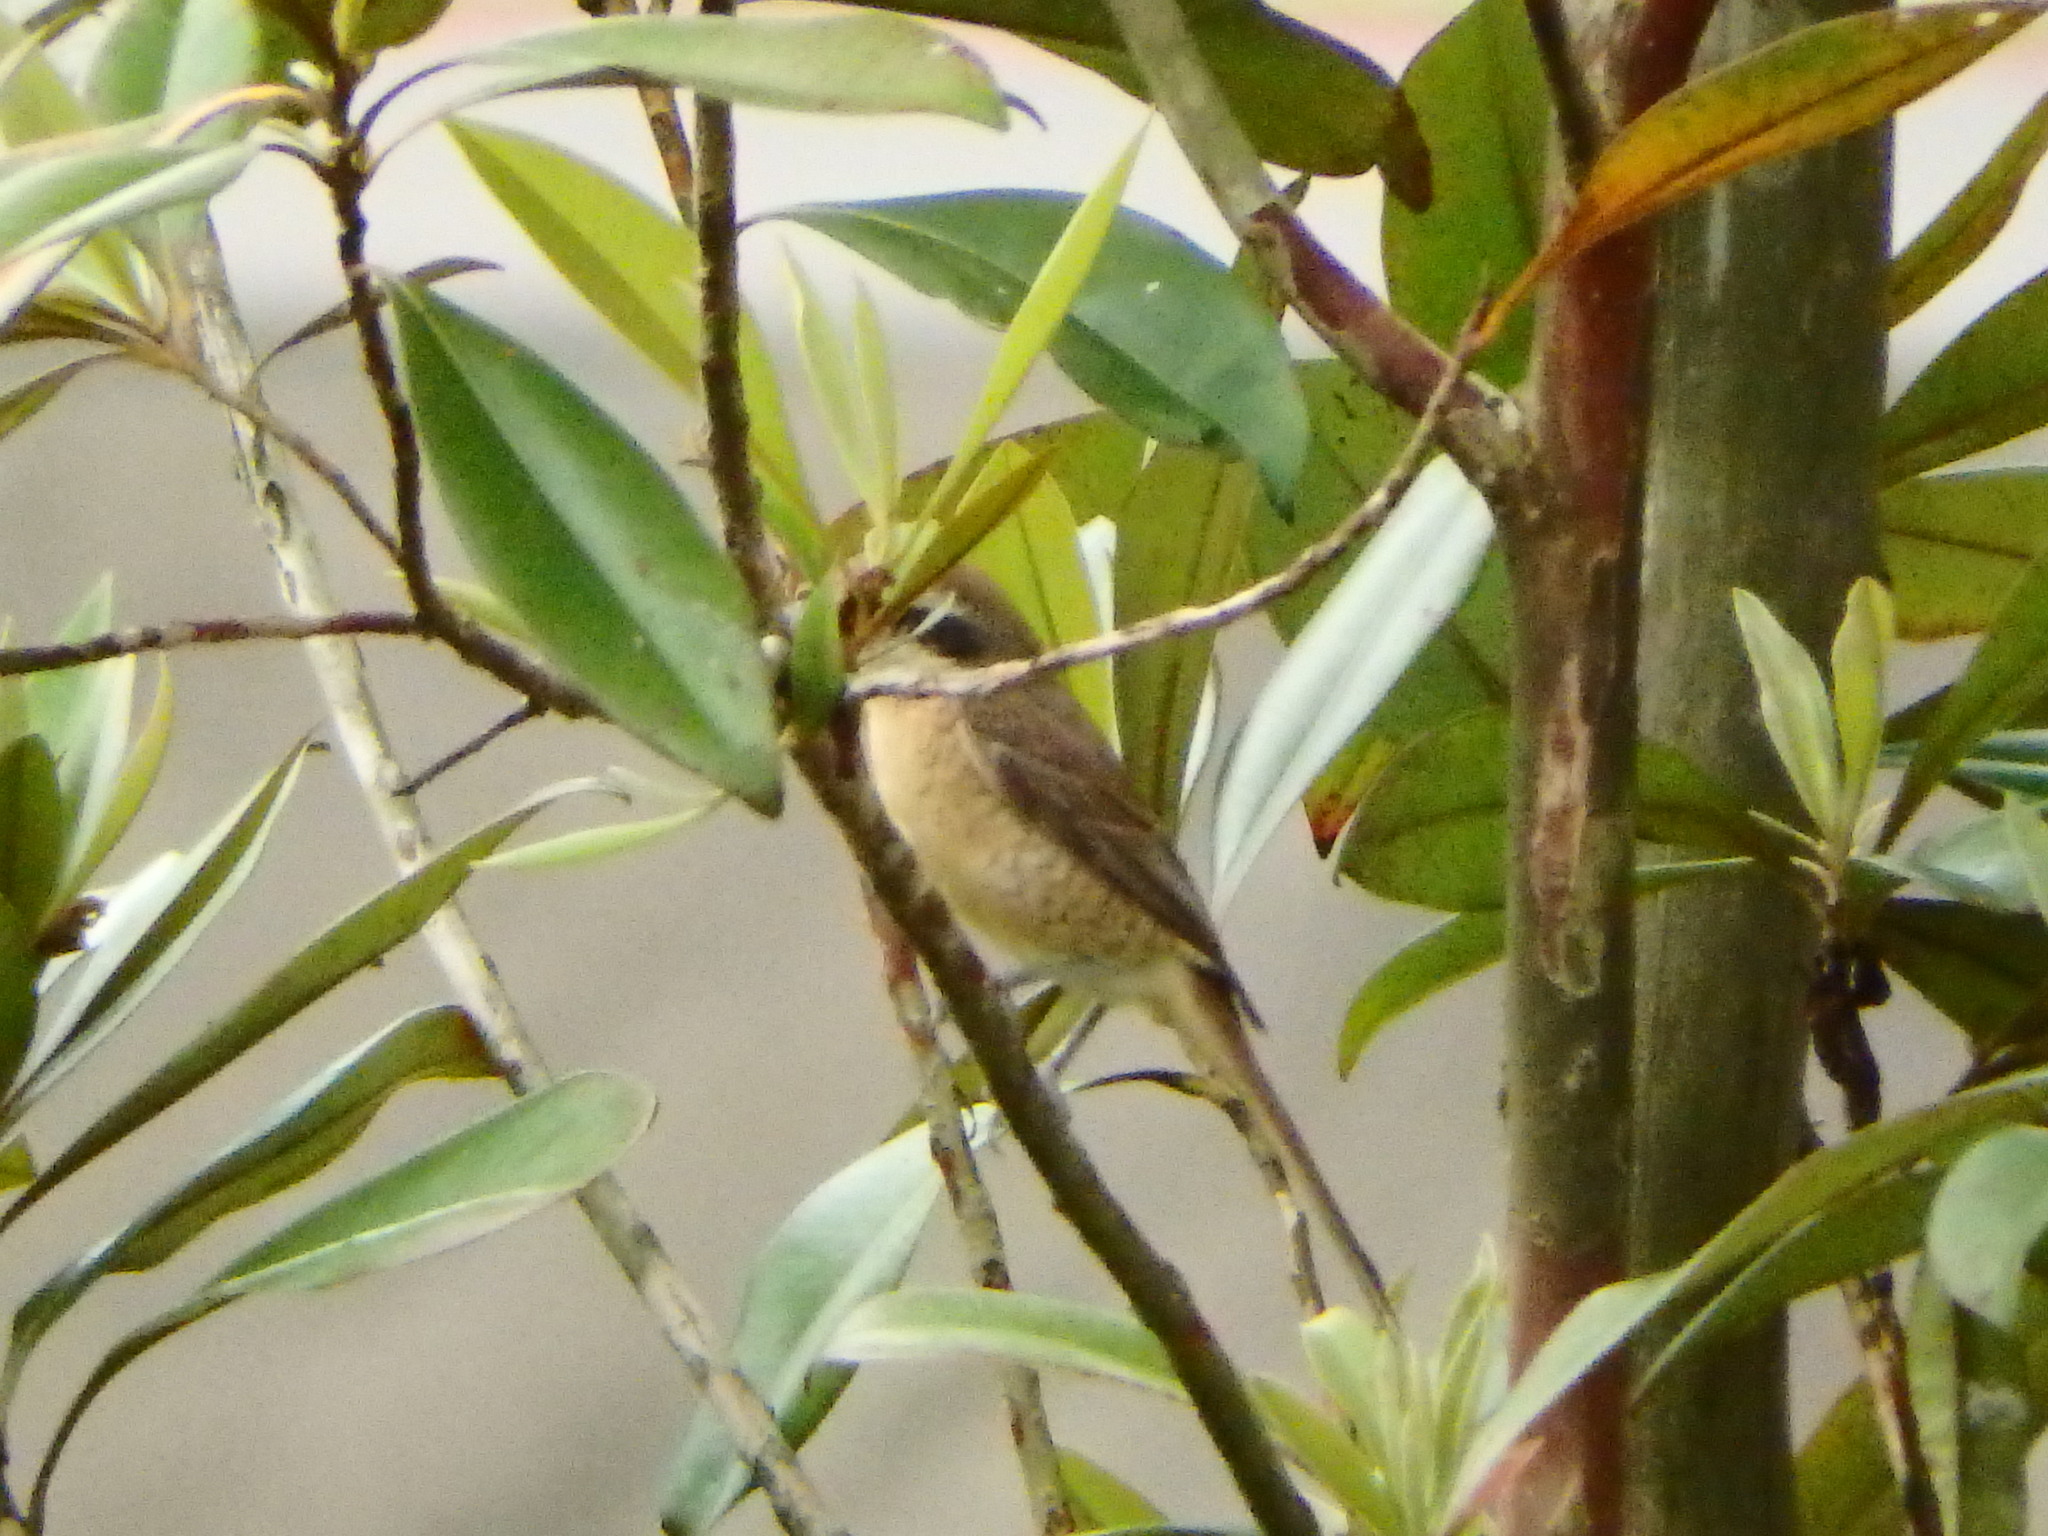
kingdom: Animalia
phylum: Chordata
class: Aves
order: Passeriformes
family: Laniidae
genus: Lanius
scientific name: Lanius cristatus
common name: Brown shrike
